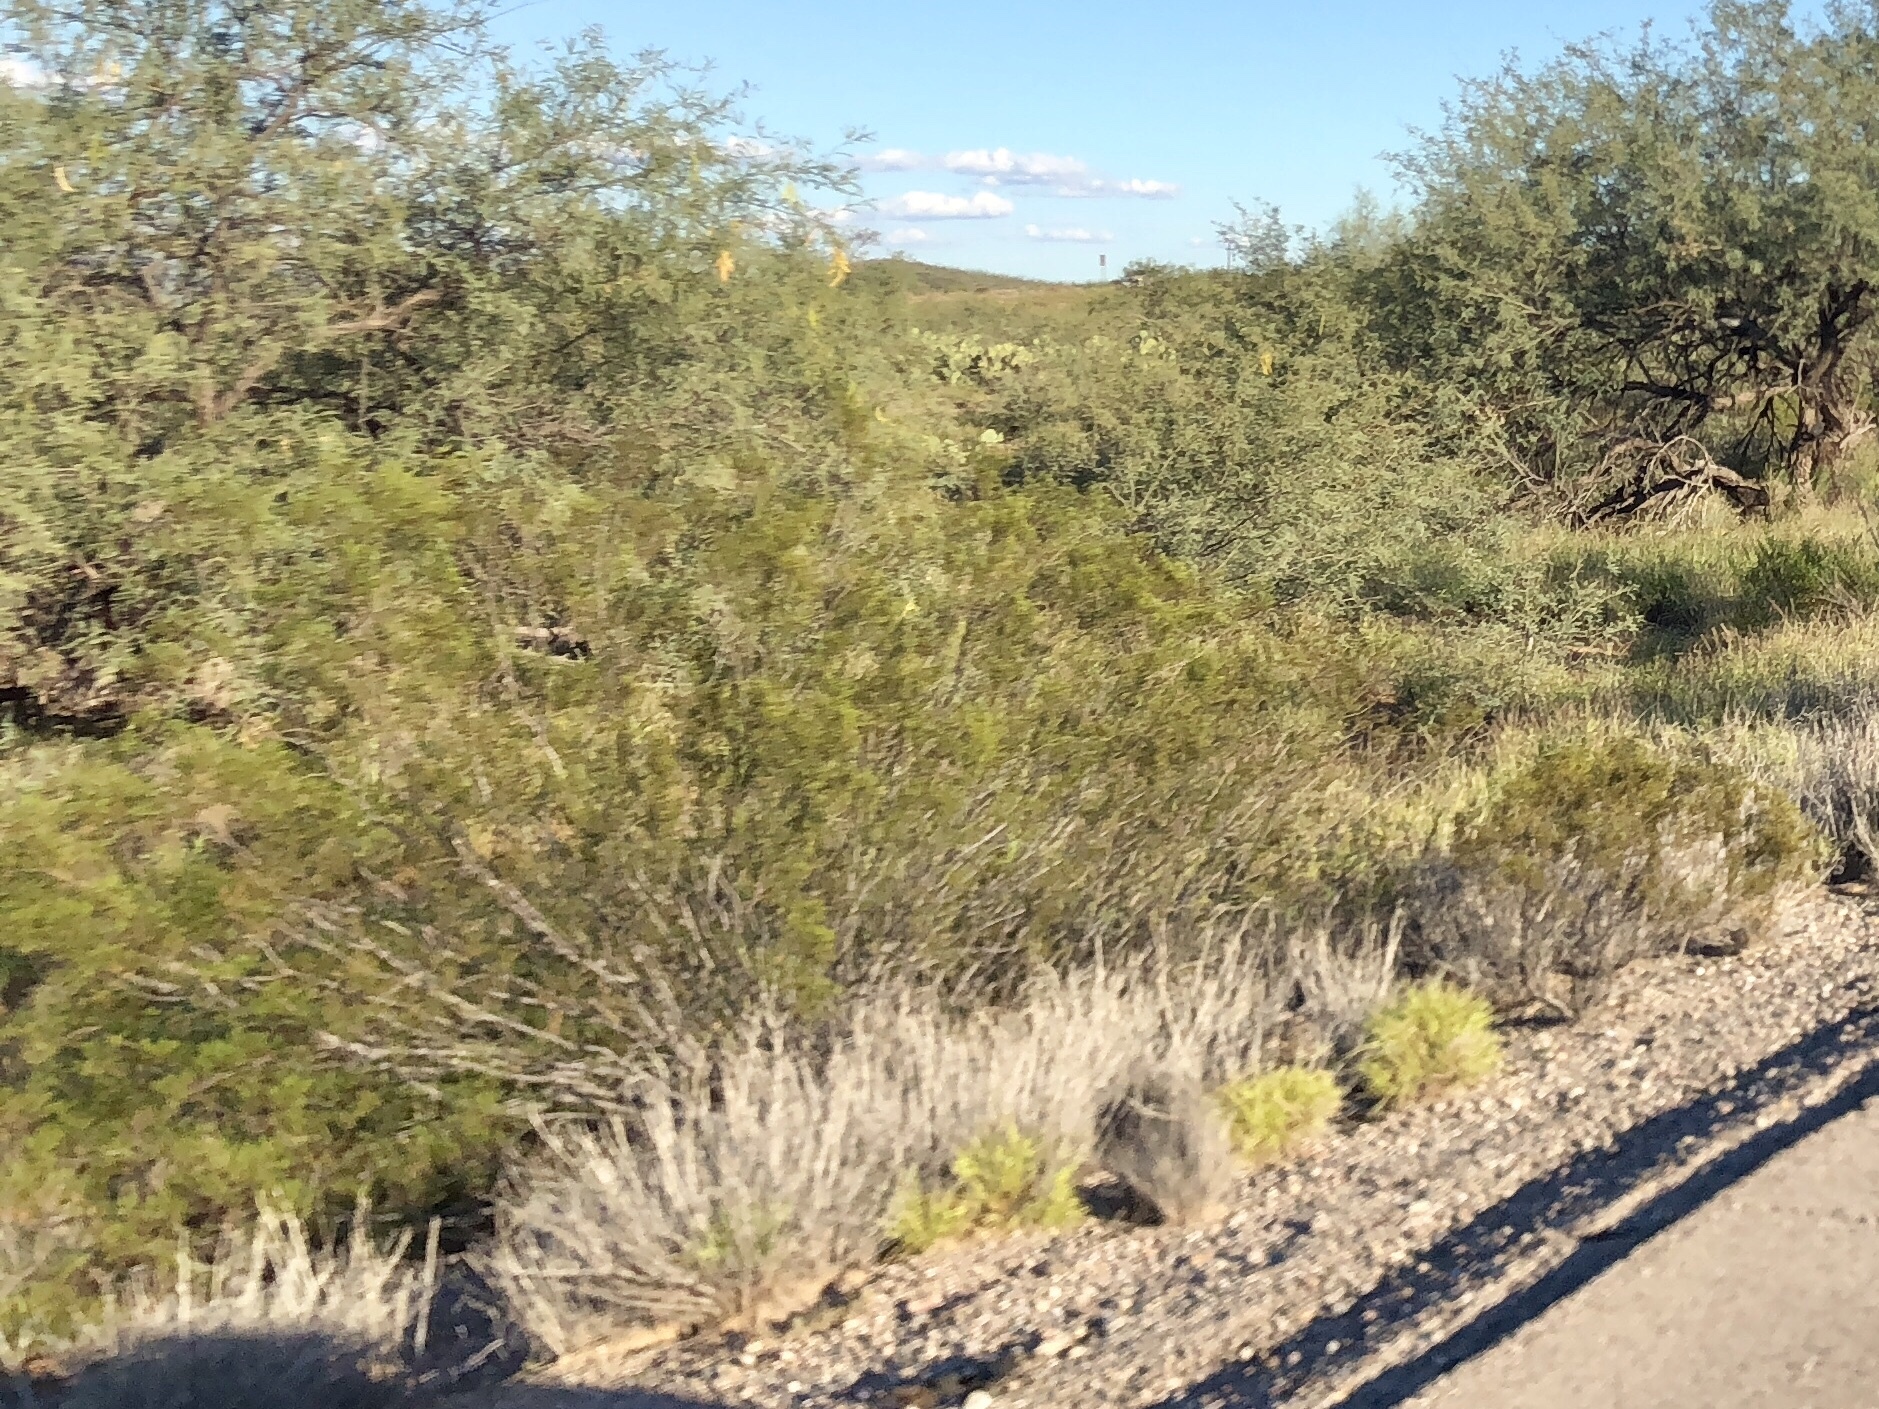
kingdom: Plantae
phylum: Tracheophyta
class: Magnoliopsida
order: Zygophyllales
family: Zygophyllaceae
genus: Larrea
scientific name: Larrea tridentata
